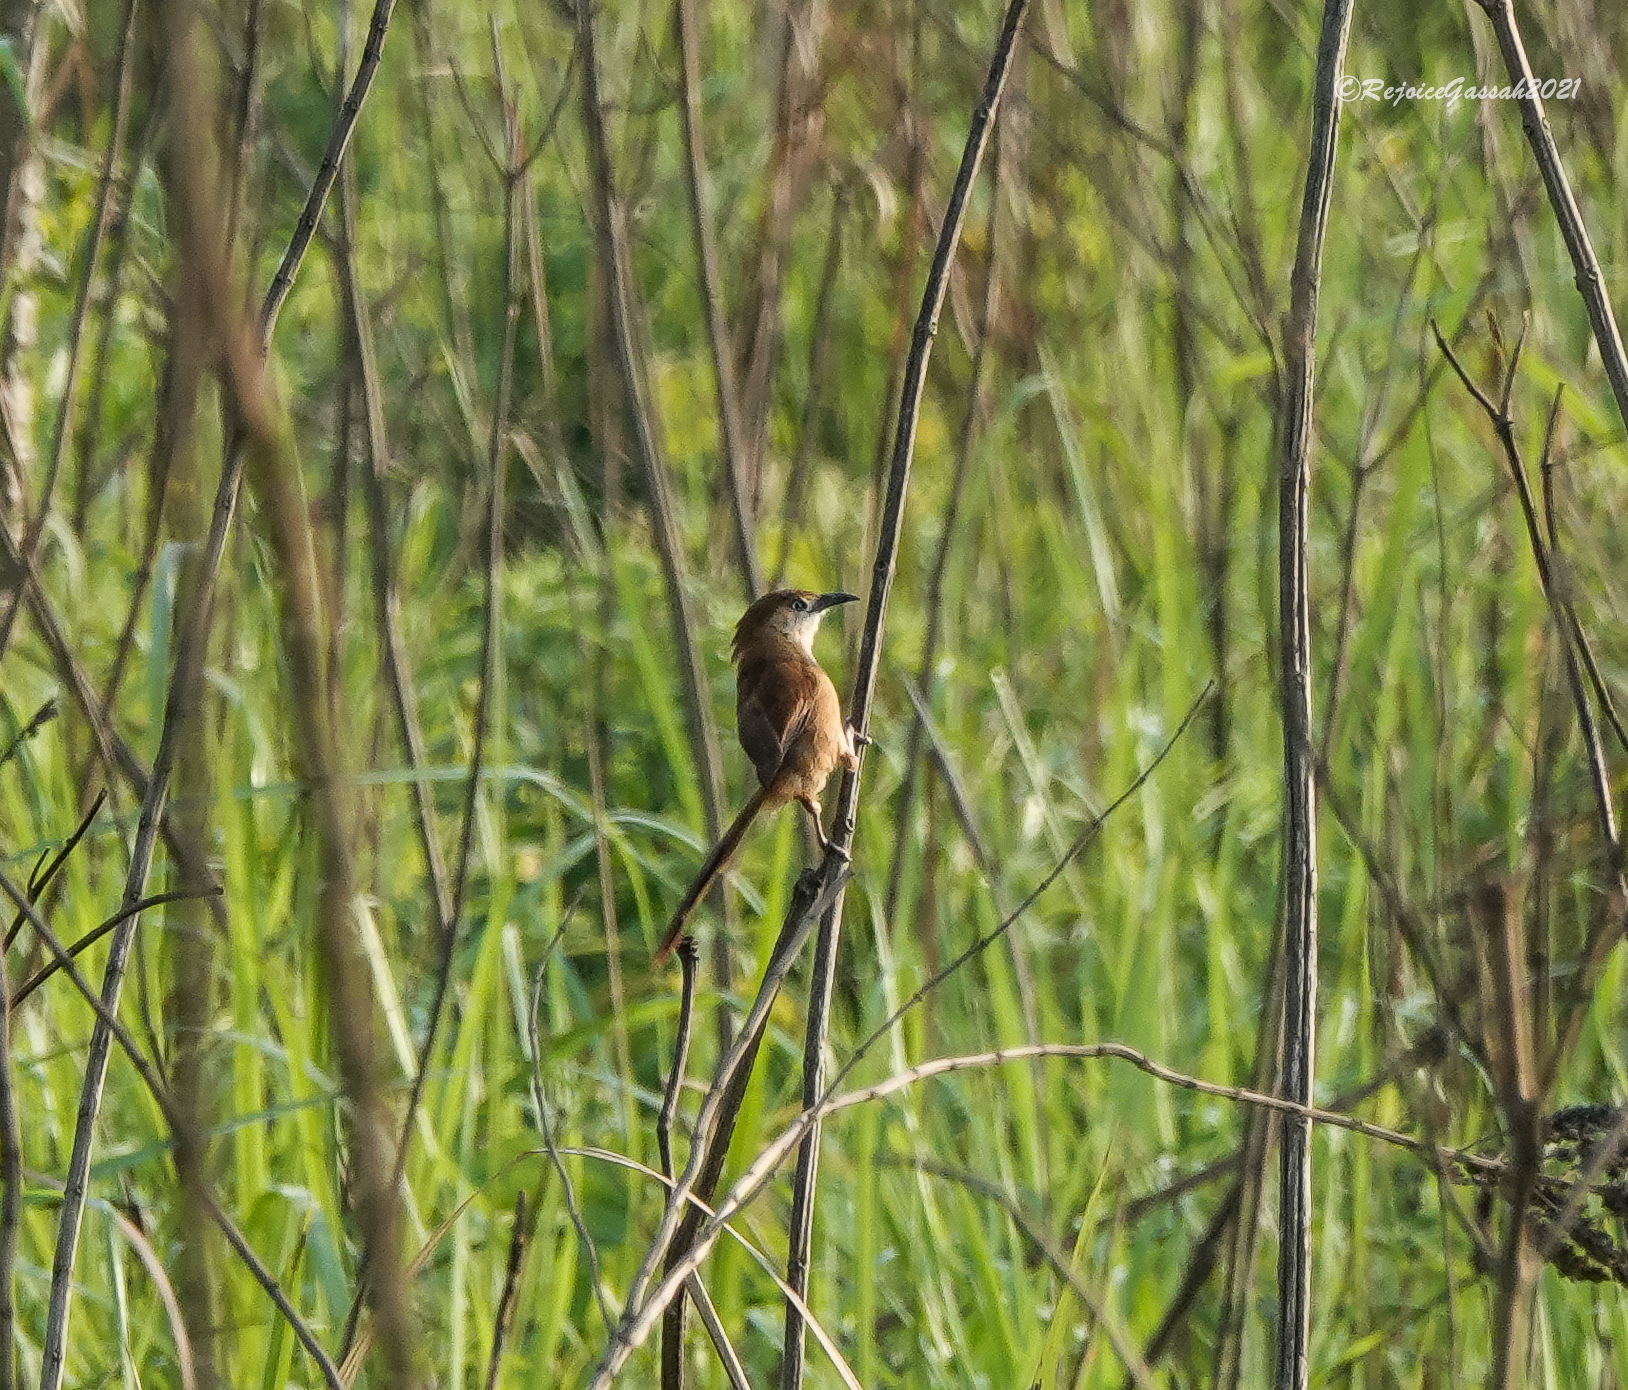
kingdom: Animalia
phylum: Chordata
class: Aves
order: Passeriformes
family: Leiothrichidae
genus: Argya
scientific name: Argya longirostris
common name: Slender-billed babbler
